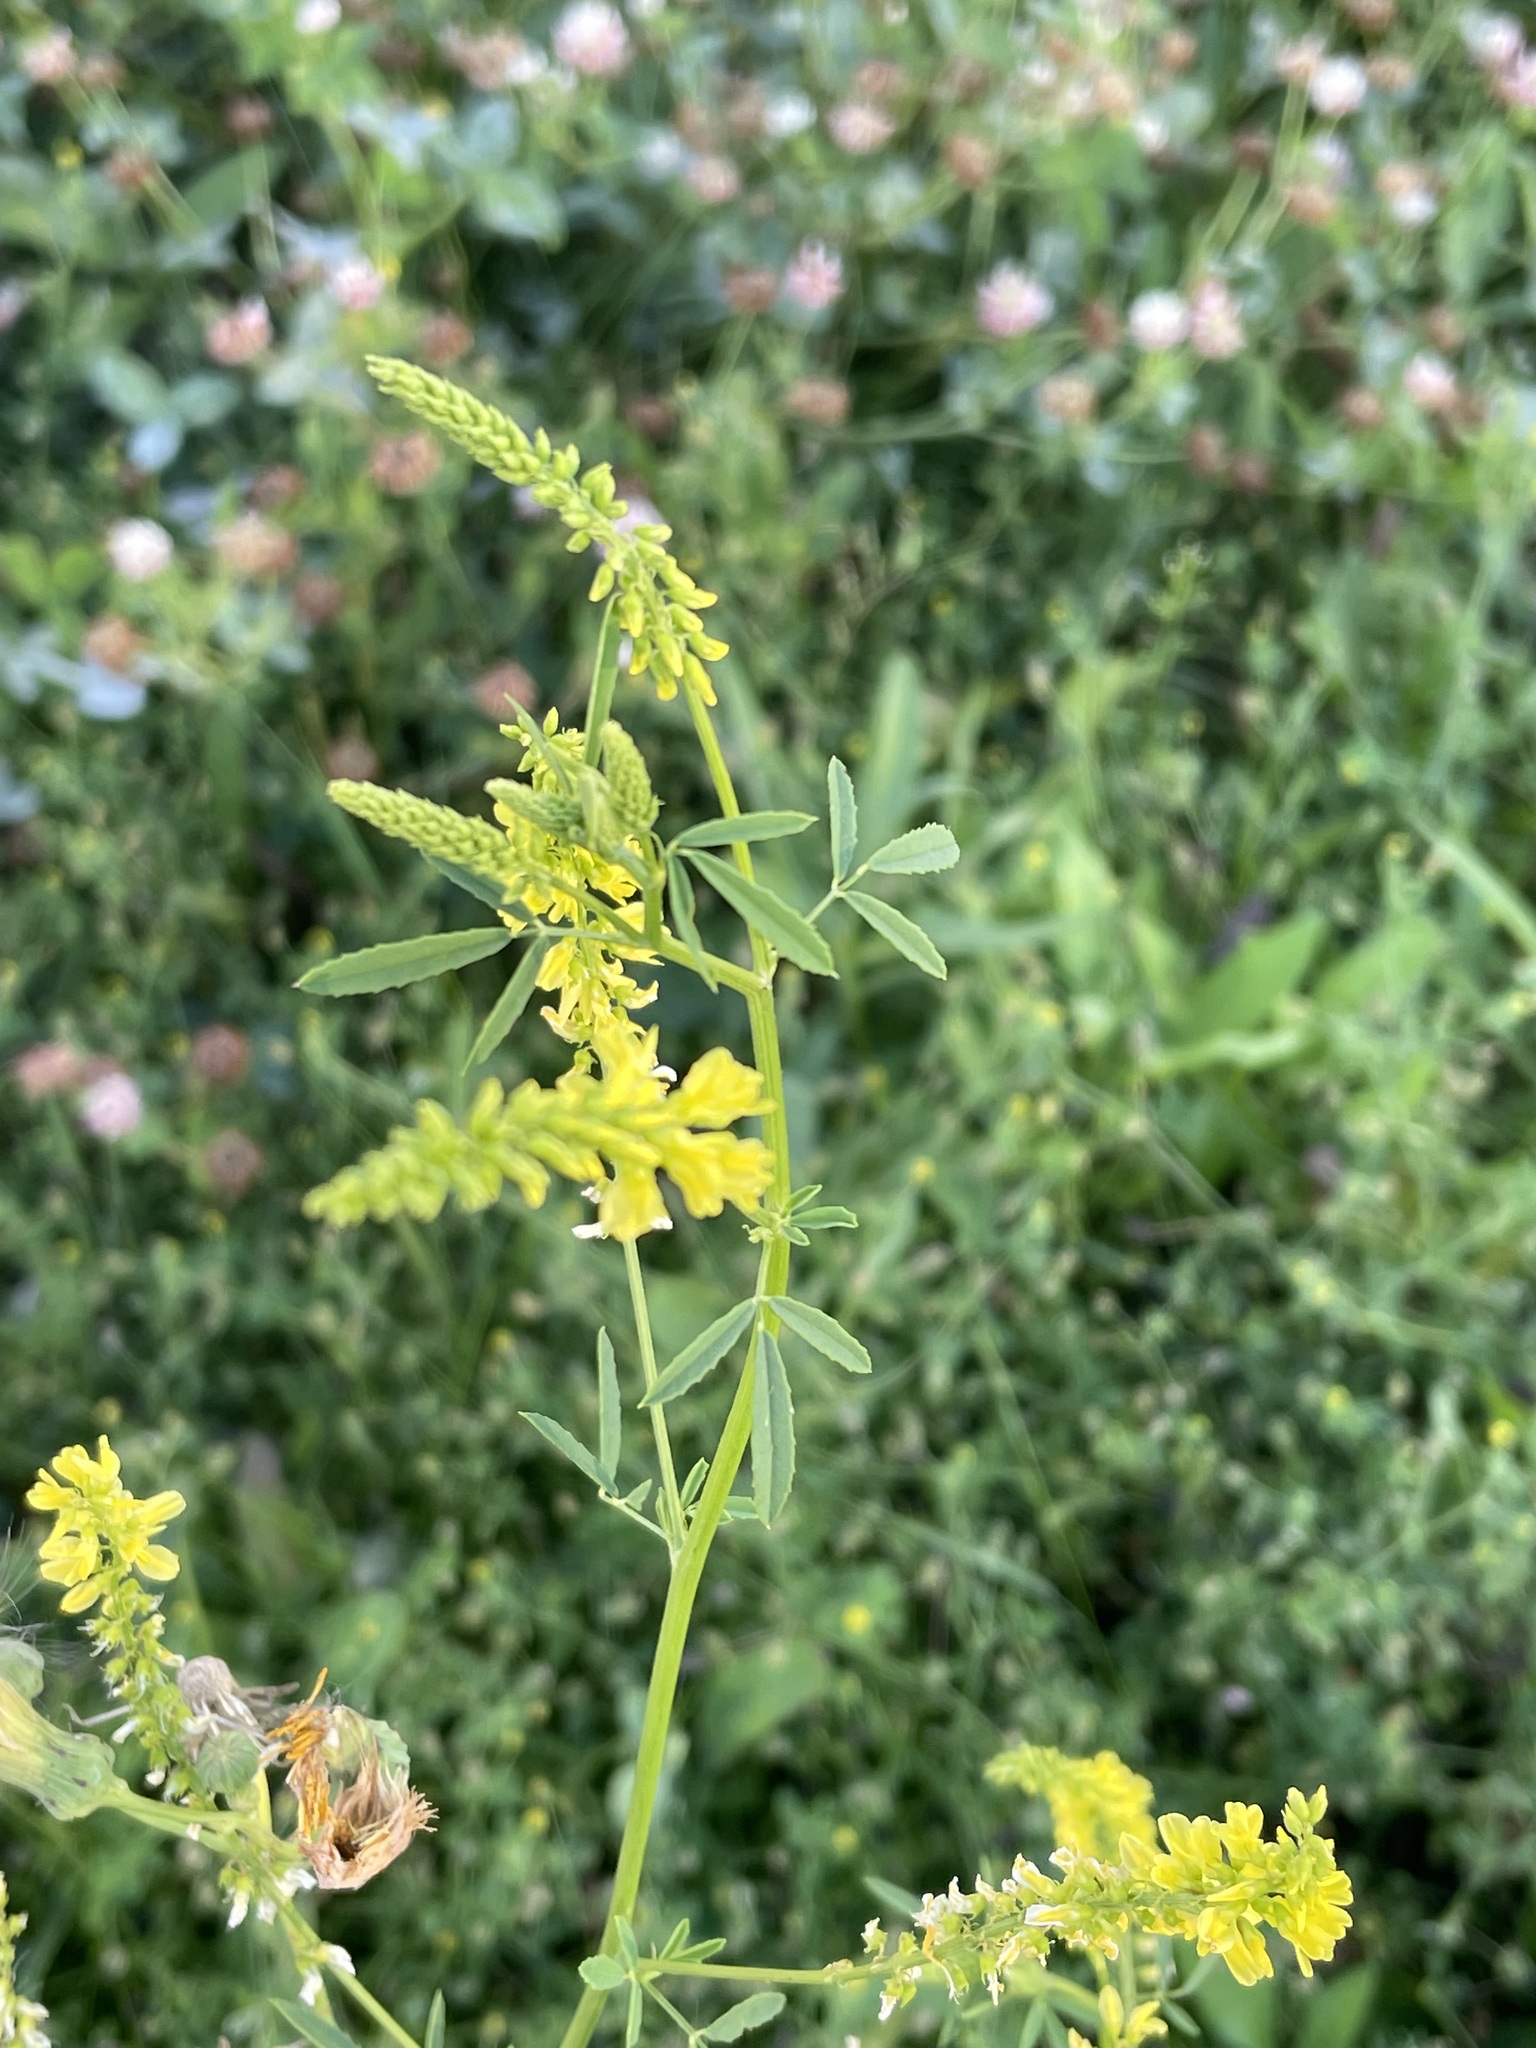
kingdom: Plantae
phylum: Tracheophyta
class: Magnoliopsida
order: Fabales
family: Fabaceae
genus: Melilotus
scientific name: Melilotus officinalis
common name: Sweetclover
